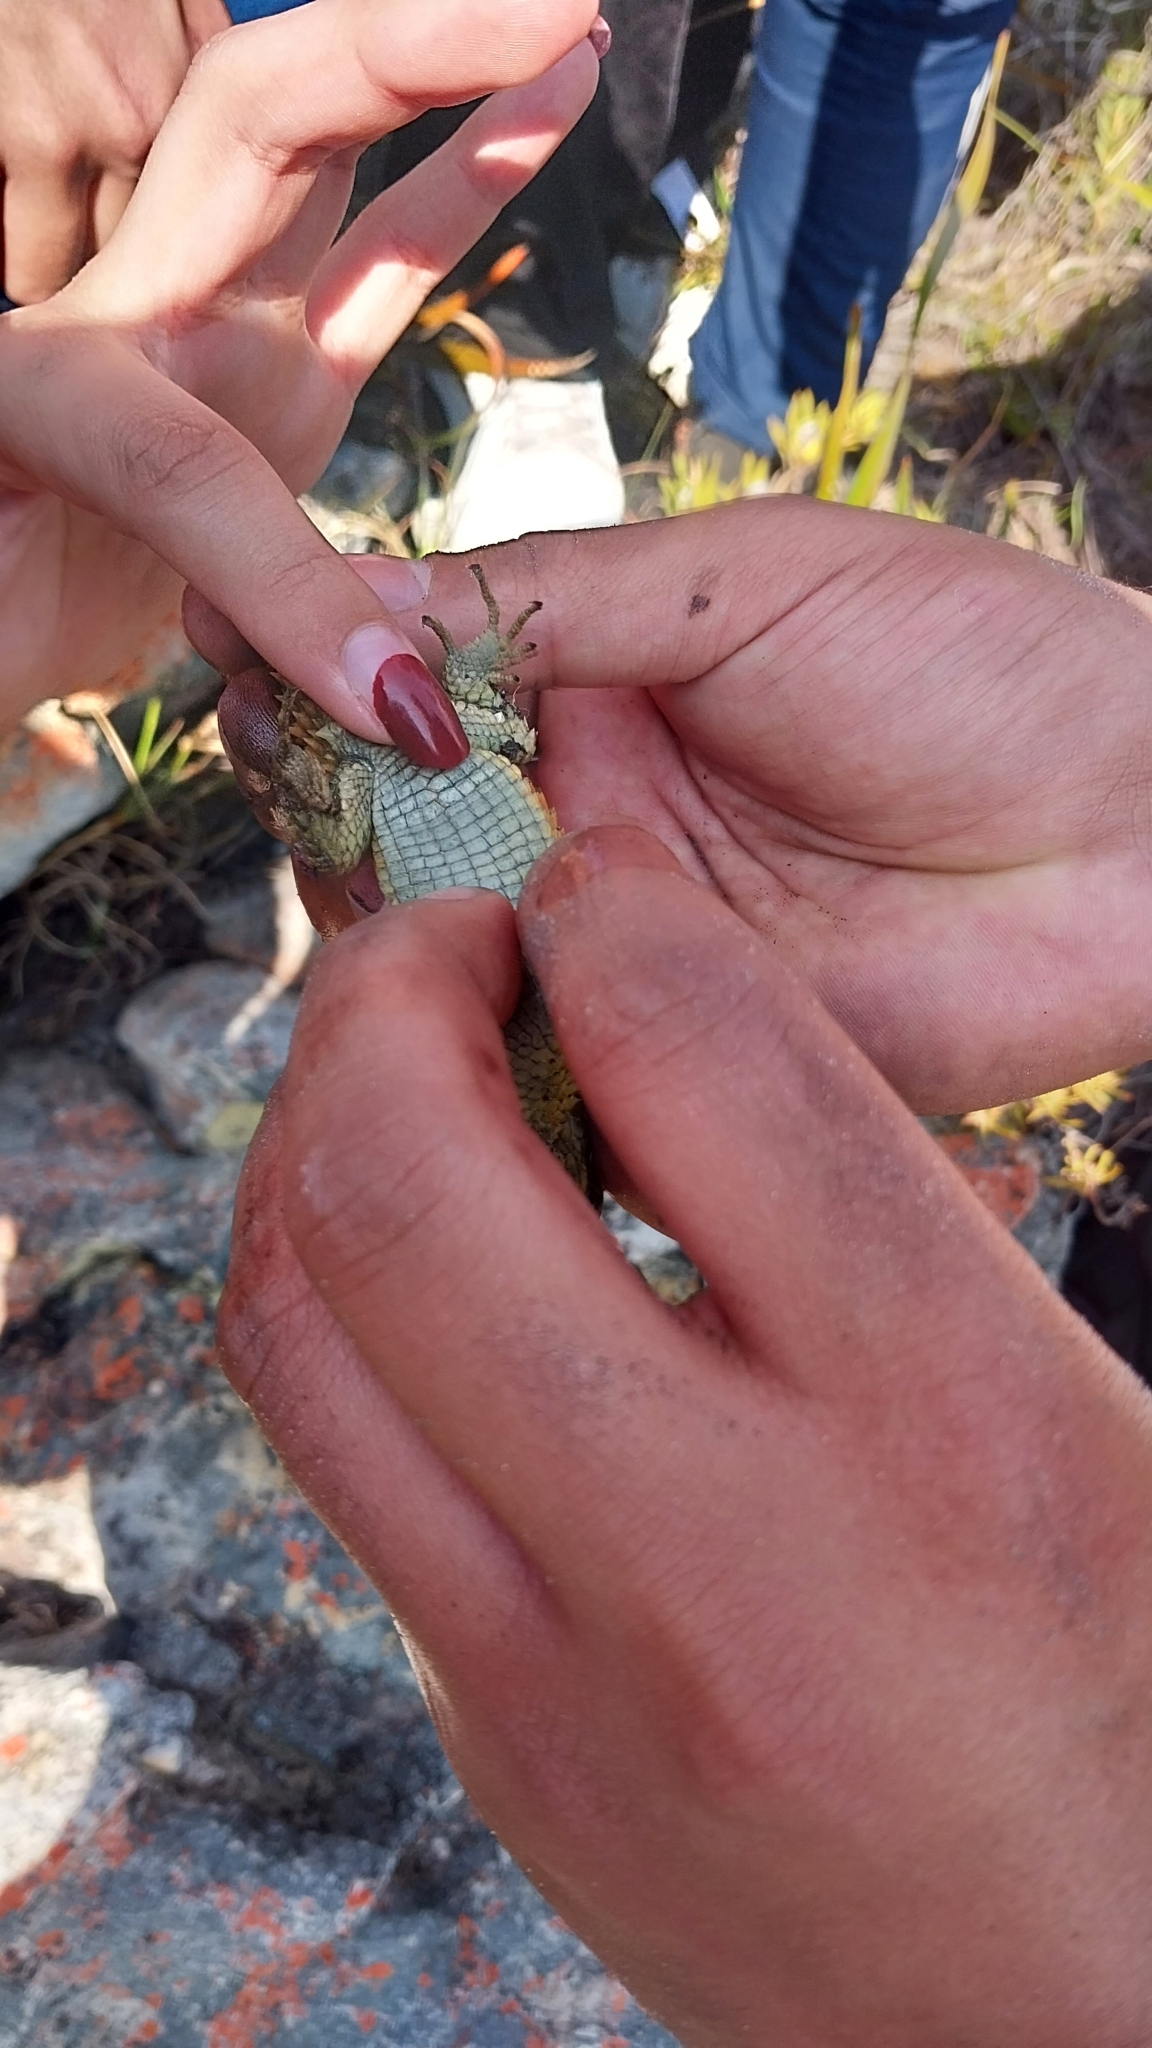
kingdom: Animalia
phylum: Chordata
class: Squamata
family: Cordylidae
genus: Cordylus
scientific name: Cordylus cordylus
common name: Cape girdled lizard
